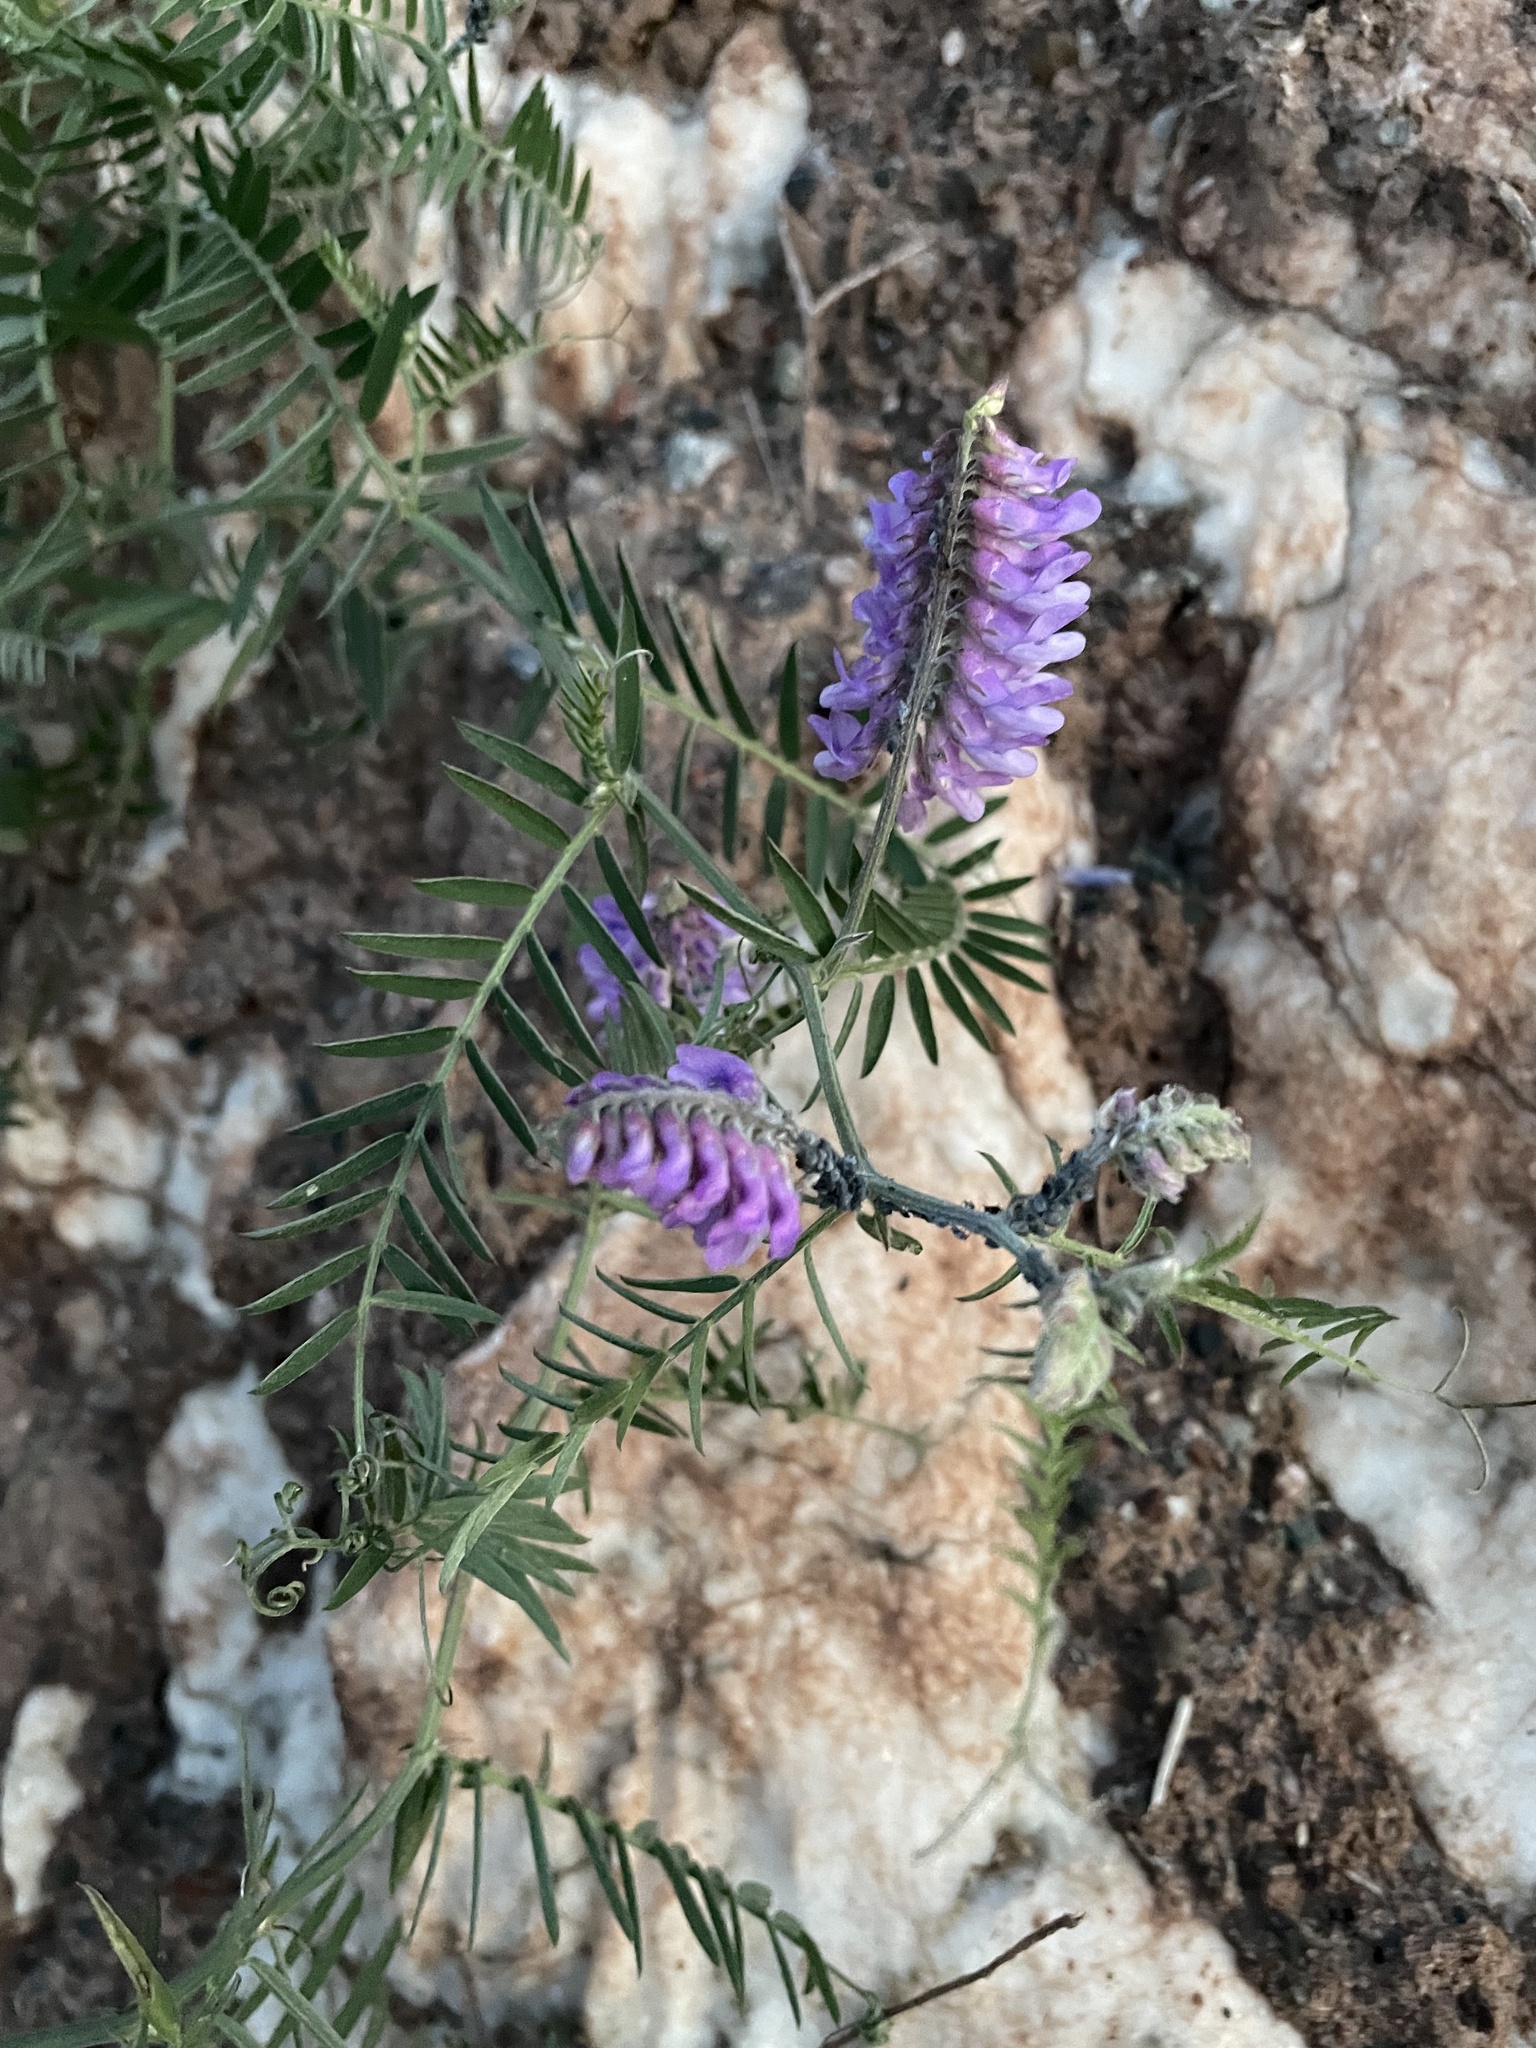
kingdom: Plantae
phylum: Tracheophyta
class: Magnoliopsida
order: Fabales
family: Fabaceae
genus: Vicia
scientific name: Vicia cracca
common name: Bird vetch
